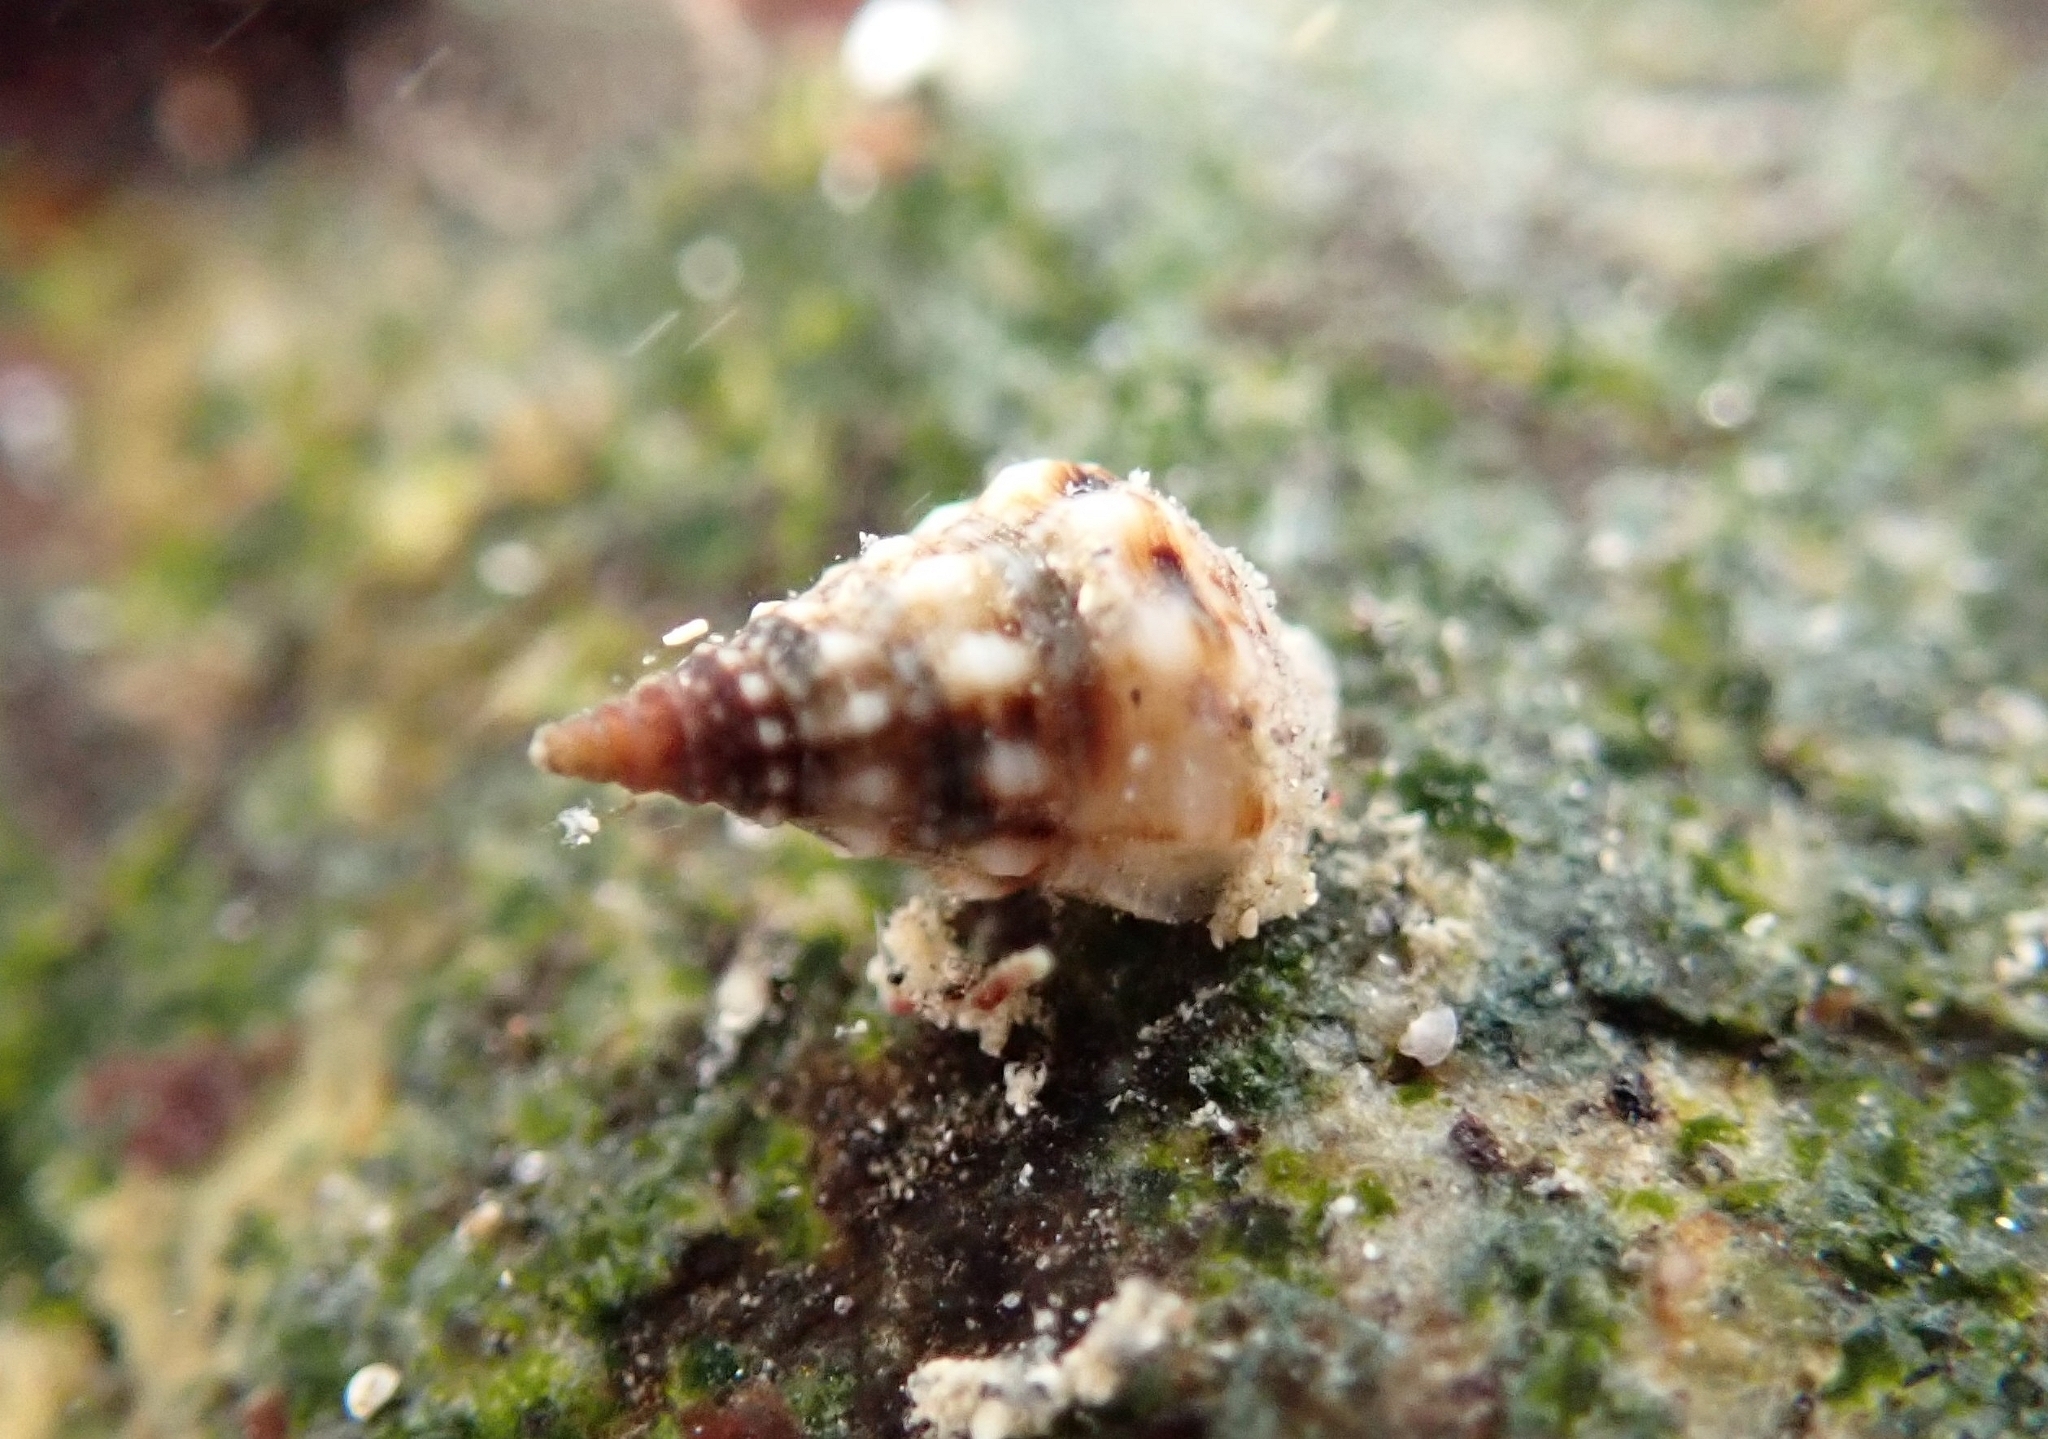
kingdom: Animalia
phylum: Mollusca
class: Gastropoda
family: Cerithiidae
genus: Cerithium
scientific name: Cerithium vulgatum
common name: European cerith
